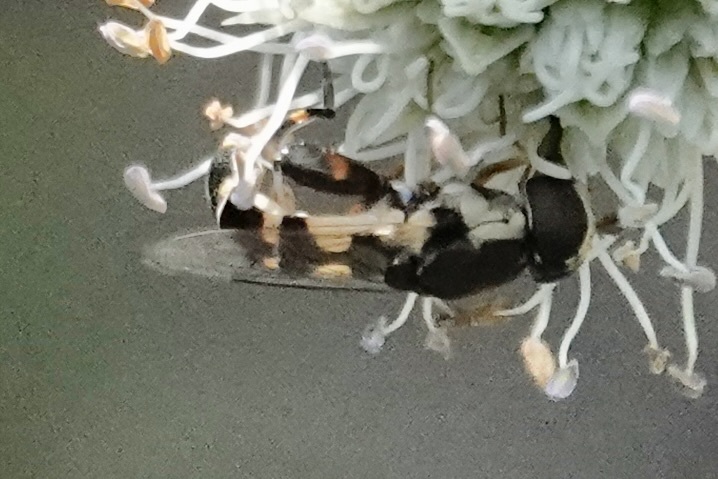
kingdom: Animalia
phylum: Arthropoda
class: Insecta
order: Diptera
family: Syrphidae
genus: Syritta
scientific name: Syritta pipiens
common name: Hover fly
